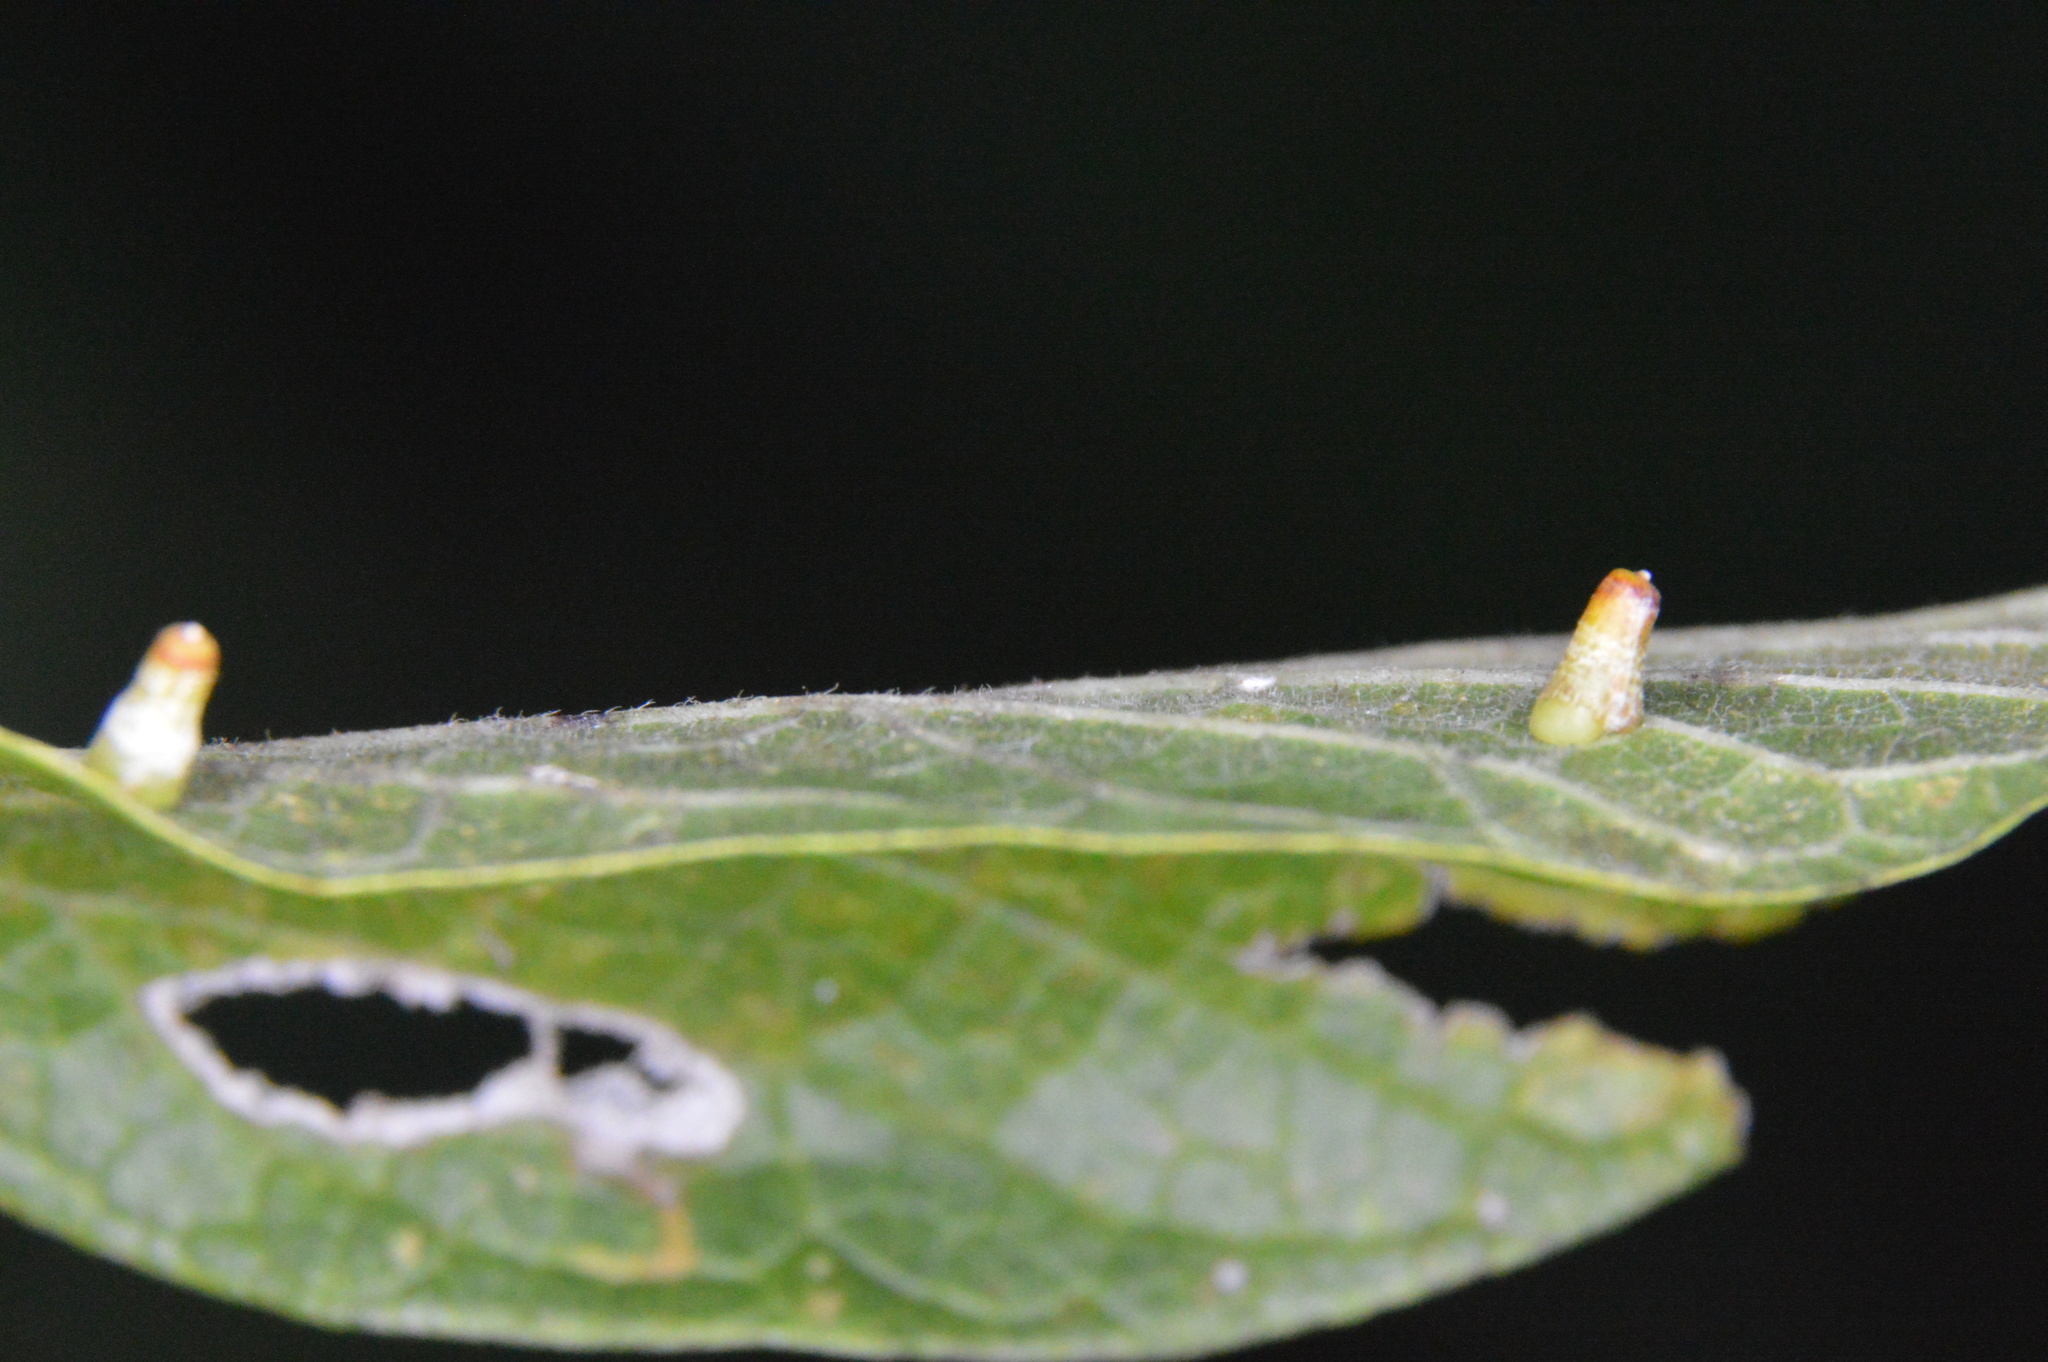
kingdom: Animalia
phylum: Arthropoda
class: Insecta
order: Diptera
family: Cecidomyiidae
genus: Celticecis
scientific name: Celticecis aciculata
